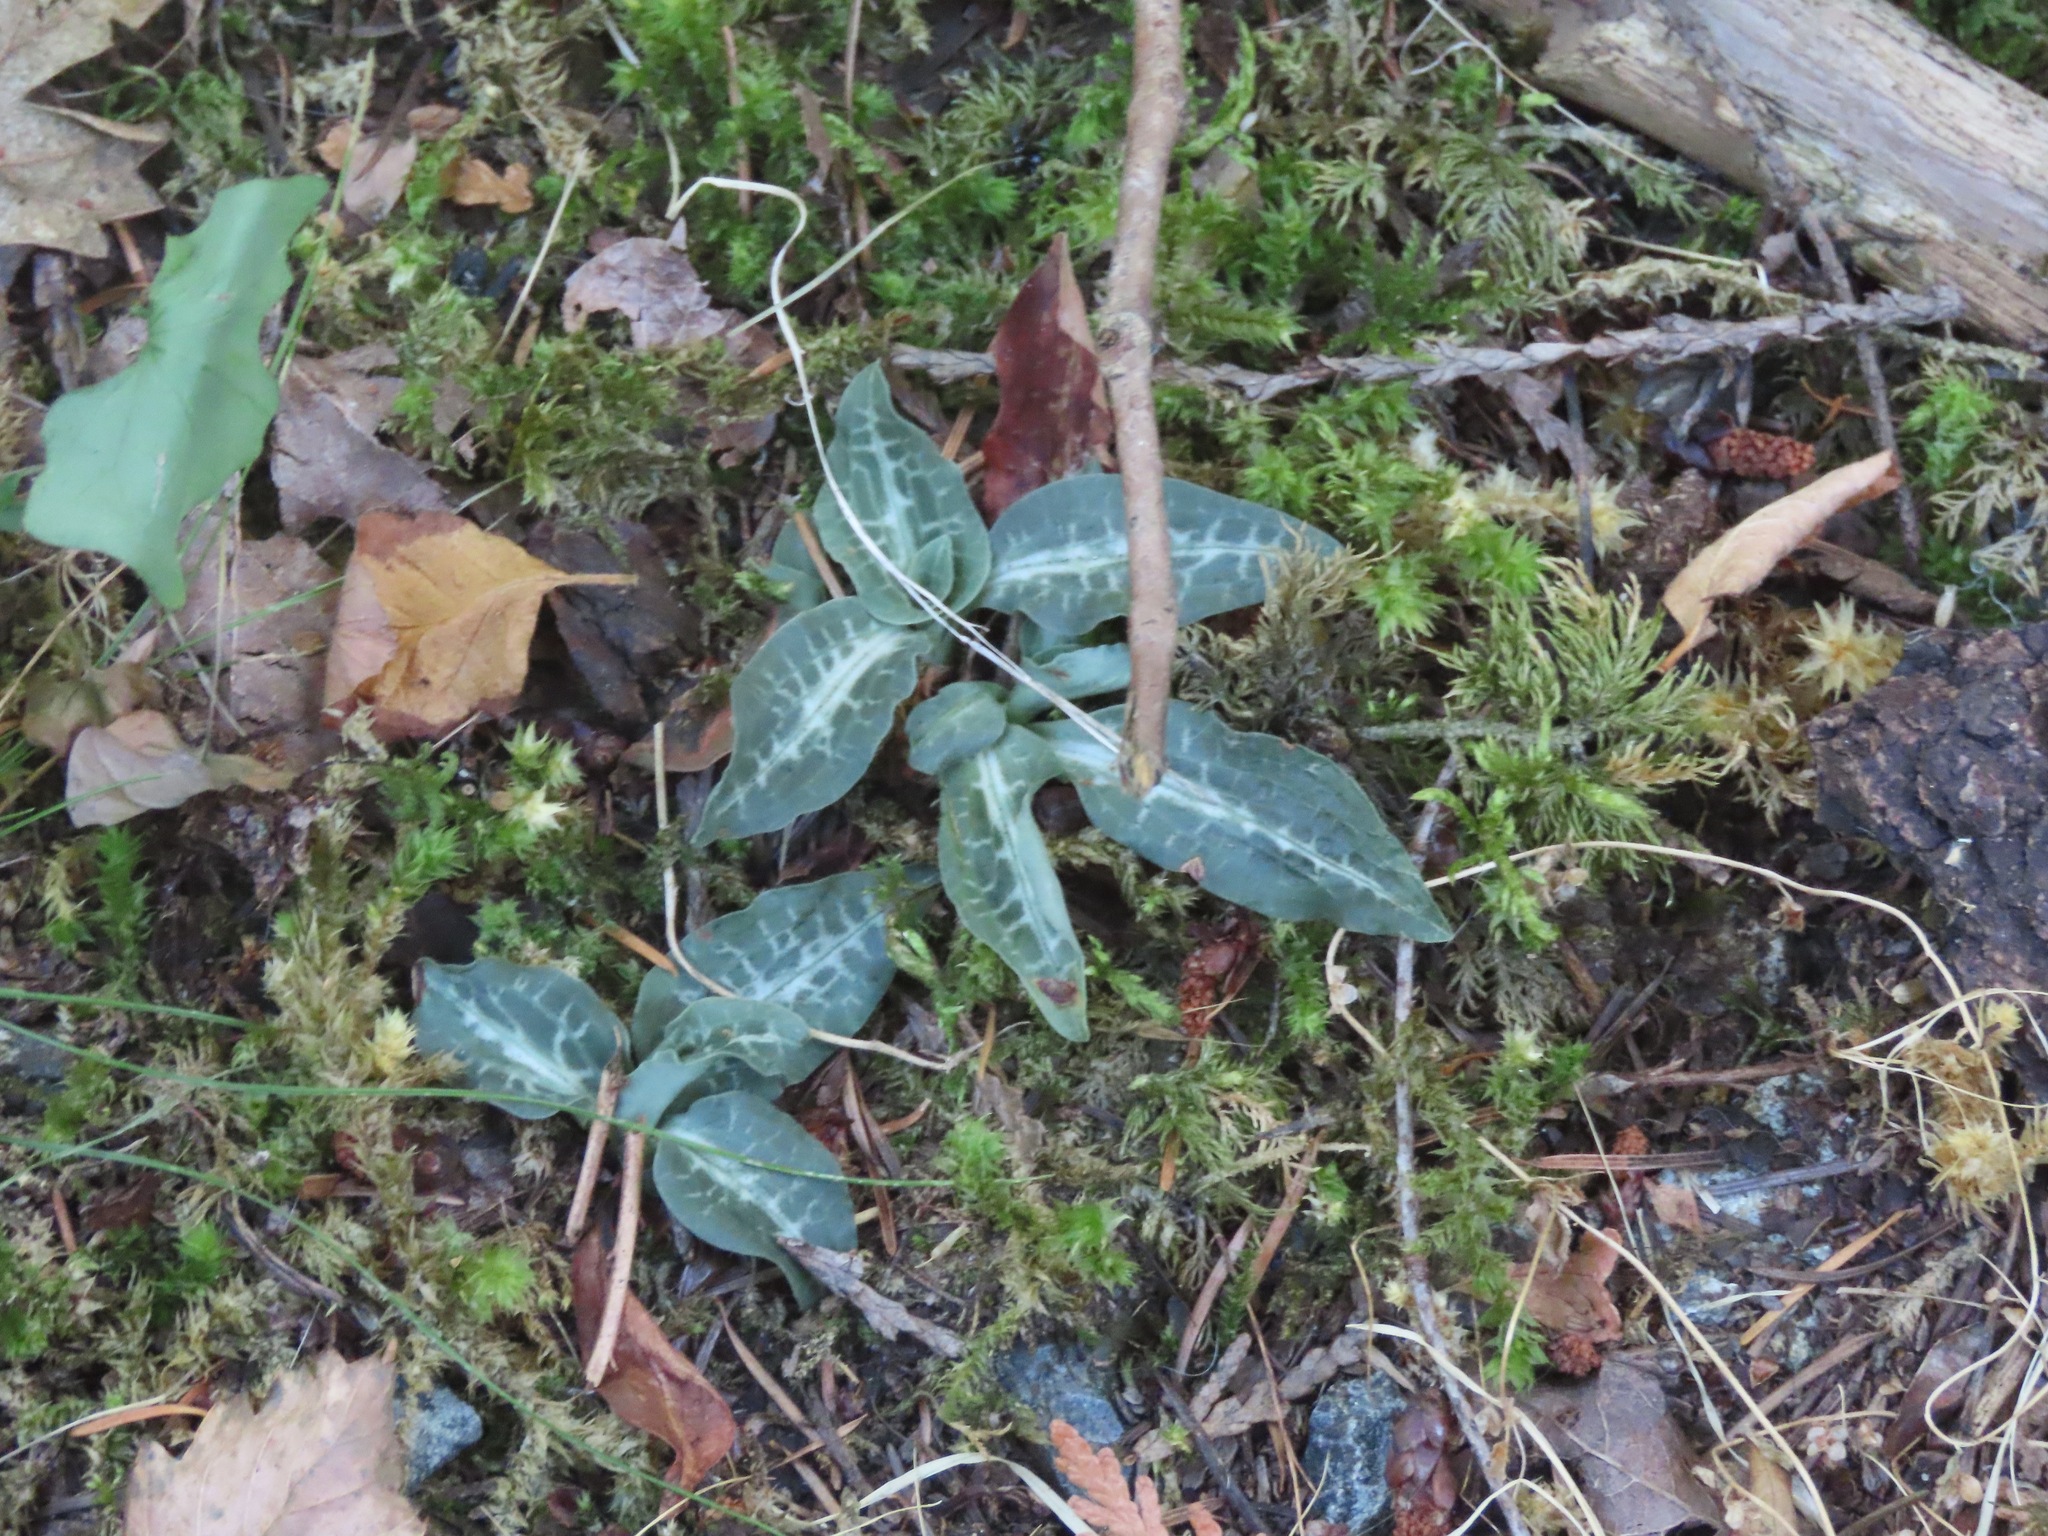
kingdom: Plantae
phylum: Tracheophyta
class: Liliopsida
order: Asparagales
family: Orchidaceae
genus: Goodyera
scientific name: Goodyera oblongifolia
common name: Giant rattlesnake-plantain
